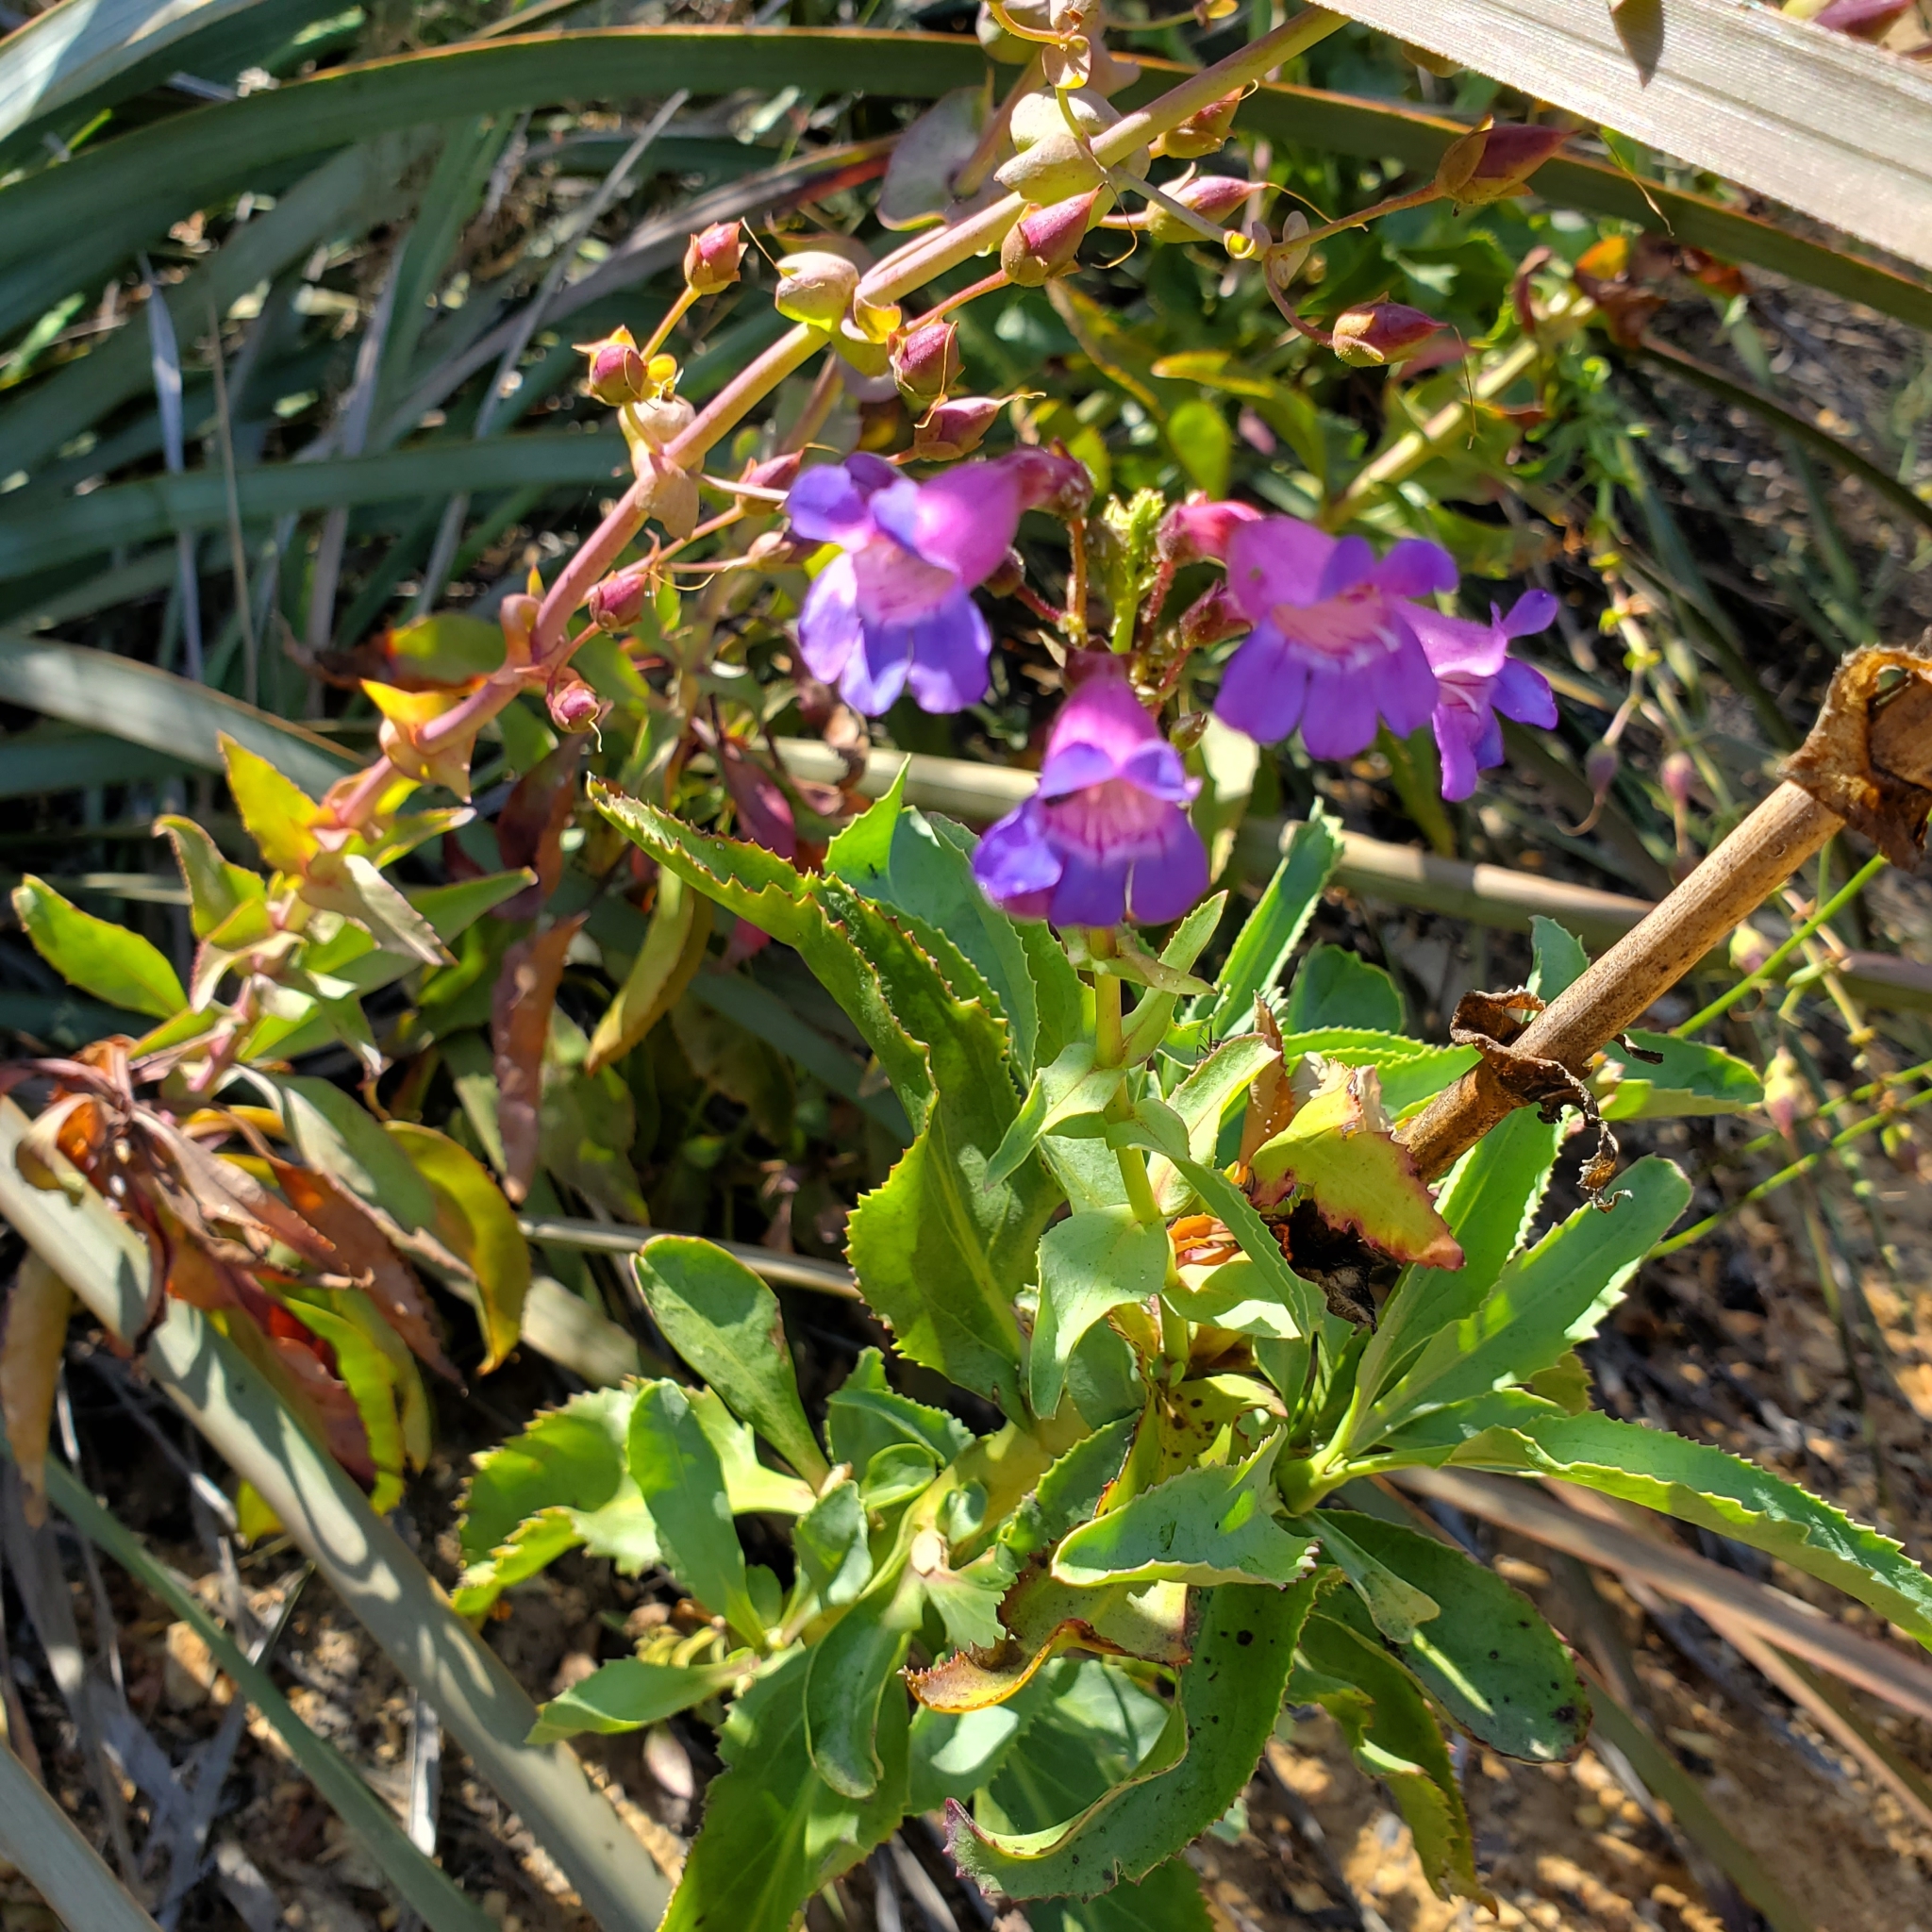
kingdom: Plantae
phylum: Tracheophyta
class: Magnoliopsida
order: Lamiales
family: Plantaginaceae
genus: Penstemon
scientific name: Penstemon spectabilis
